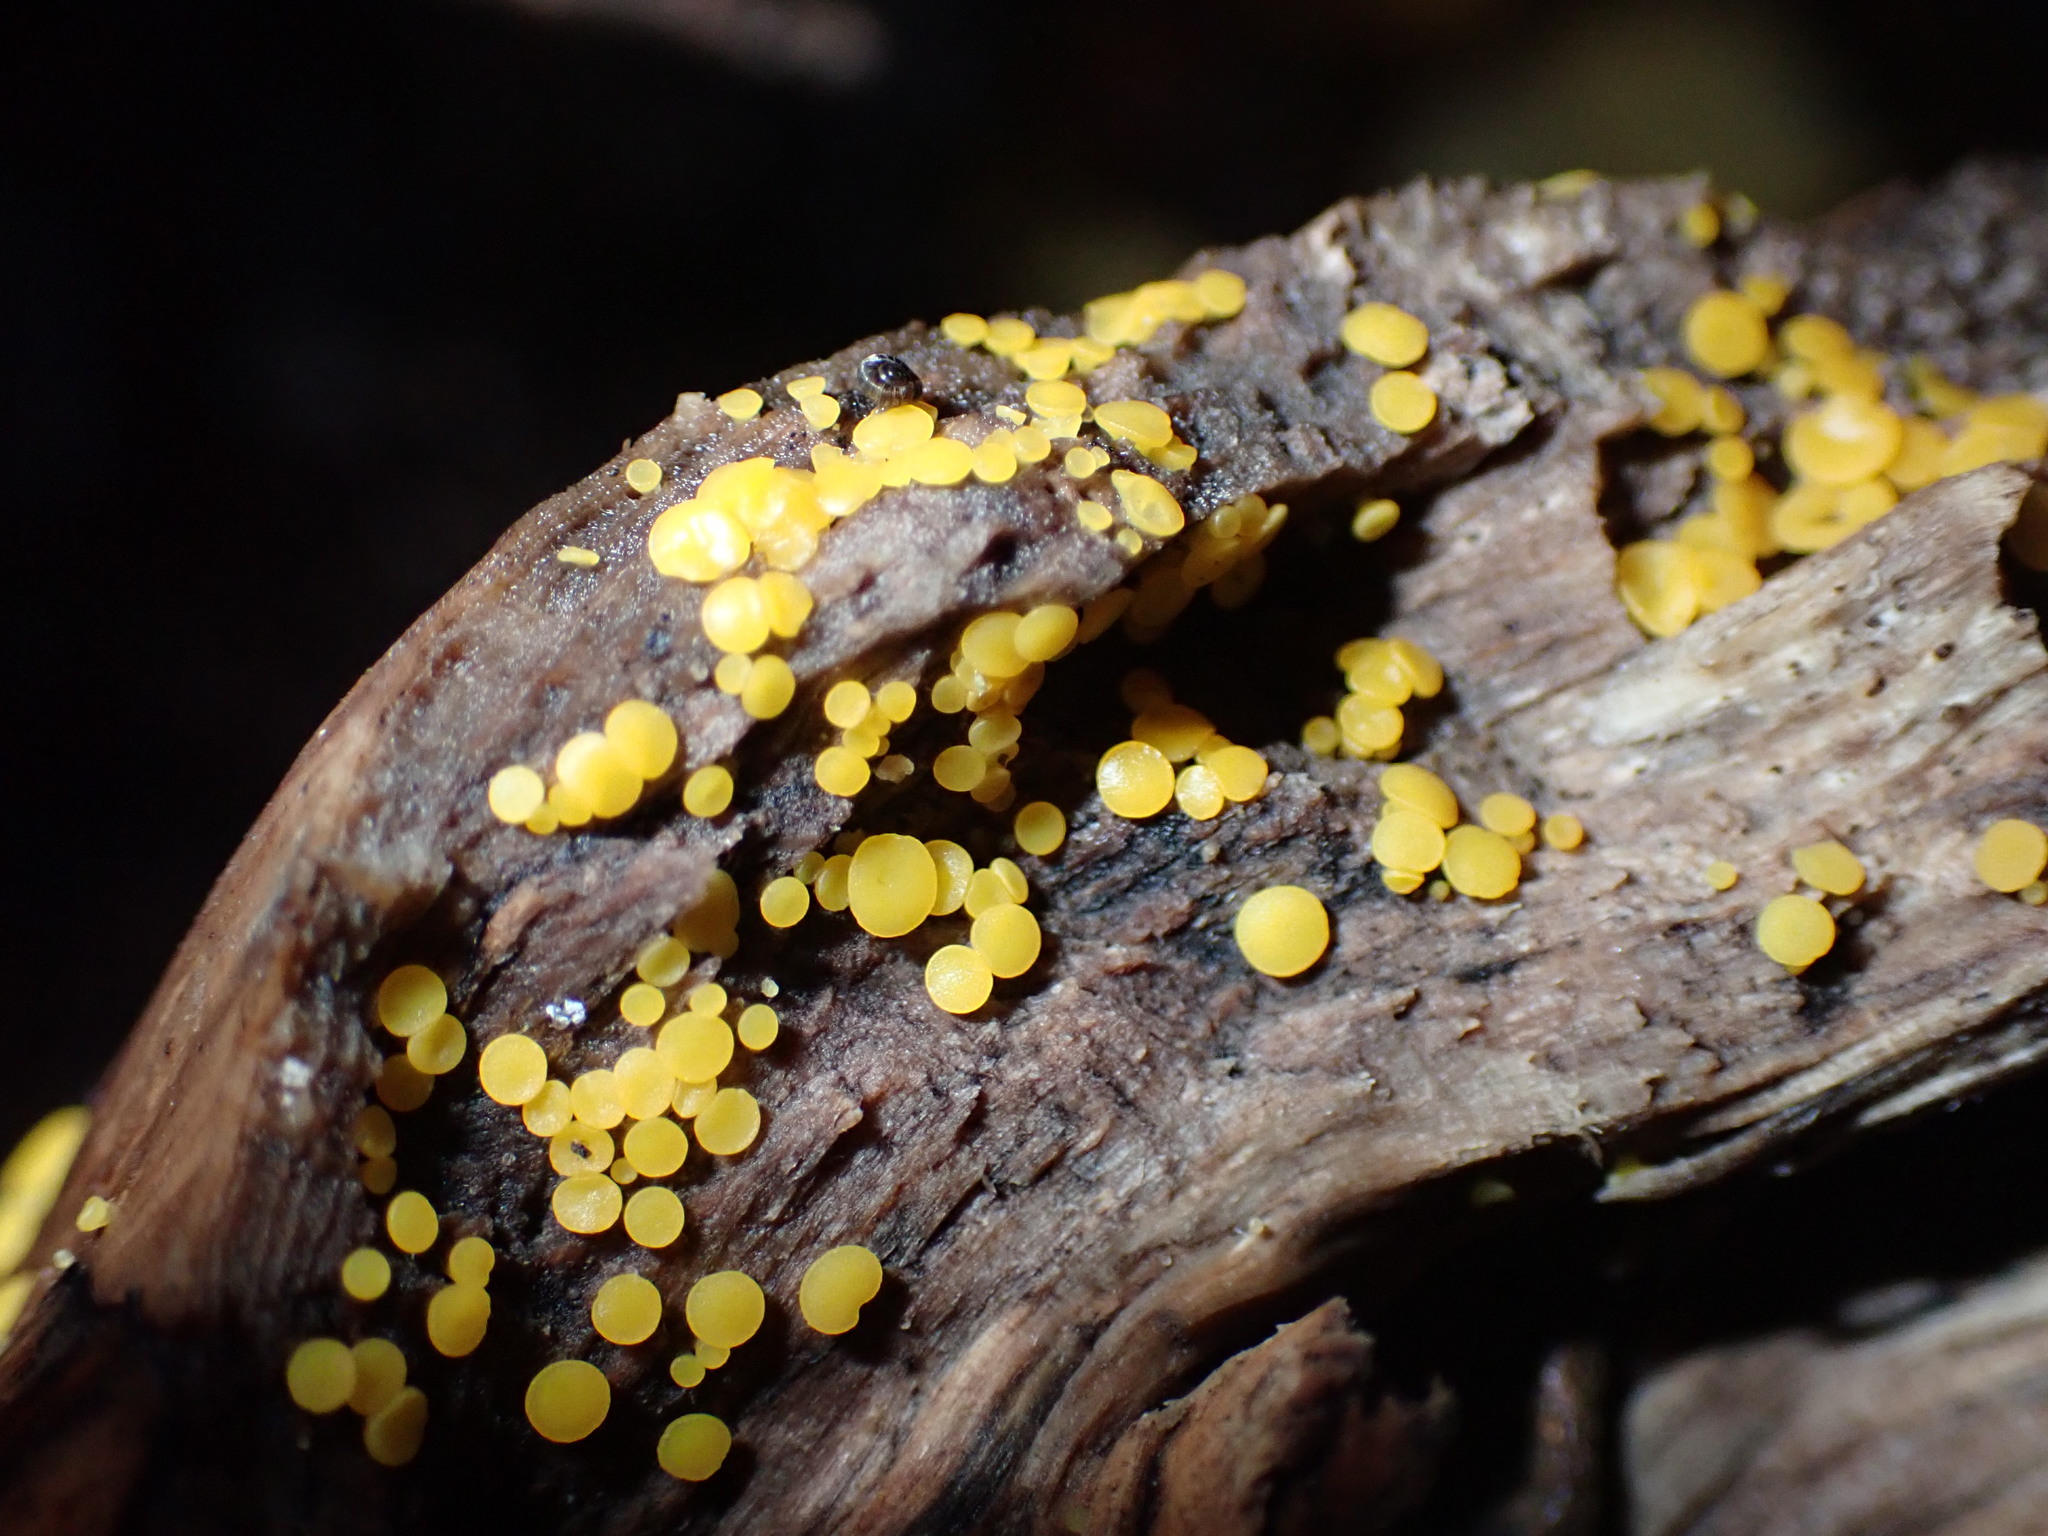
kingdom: Fungi
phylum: Ascomycota
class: Leotiomycetes
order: Helotiales
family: Pezizellaceae
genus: Calycina
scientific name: Calycina citrina
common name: Yellow fairy cups
